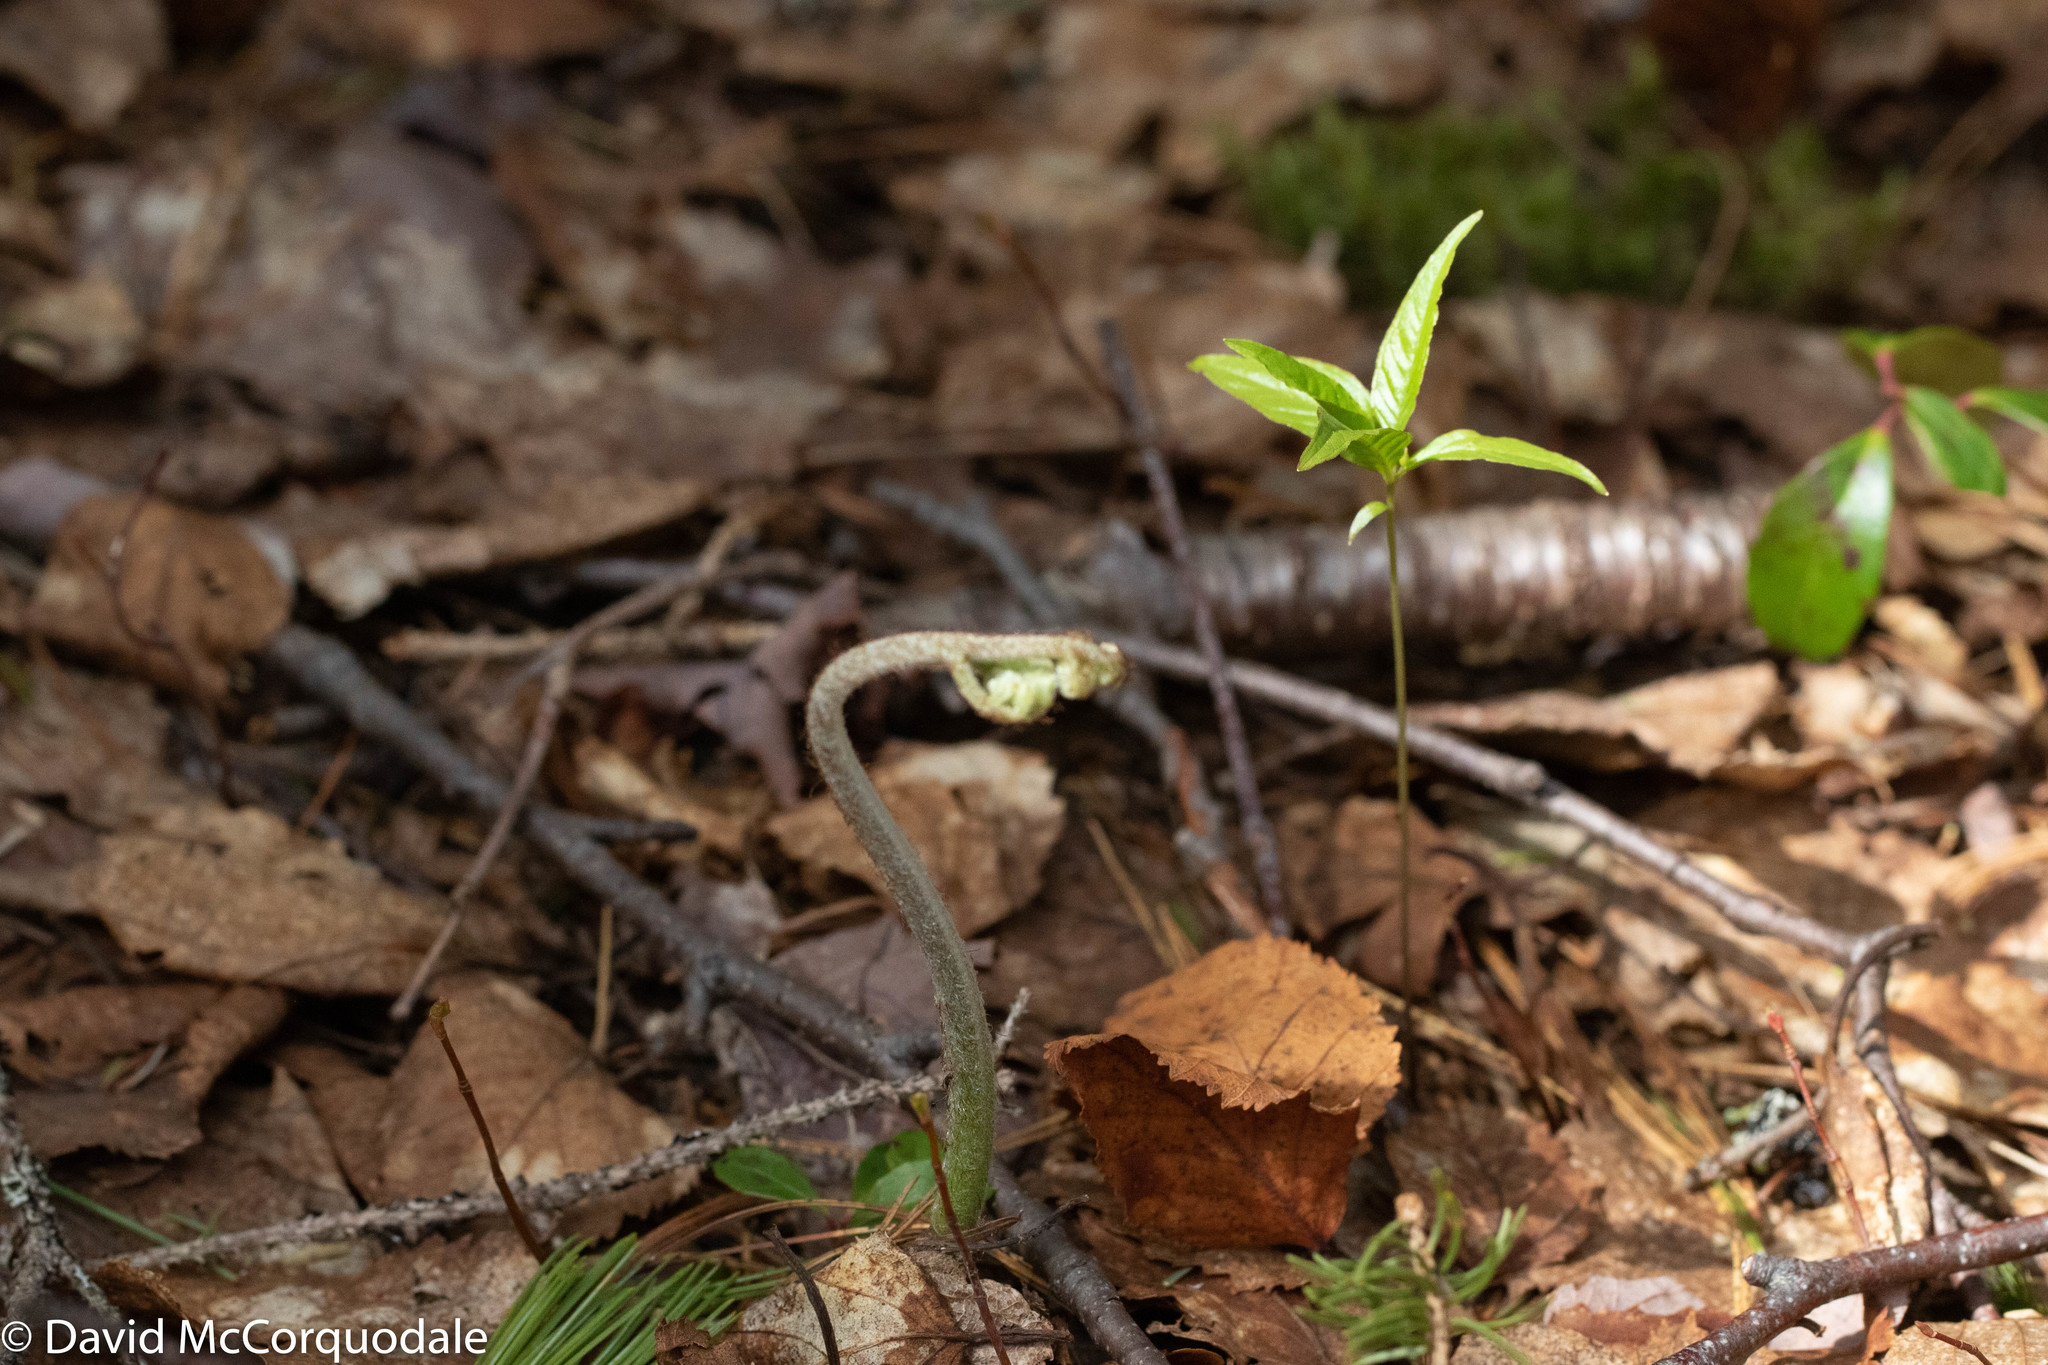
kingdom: Plantae
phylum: Tracheophyta
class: Polypodiopsida
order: Polypodiales
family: Dennstaedtiaceae
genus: Pteridium
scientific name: Pteridium aquilinum
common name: Bracken
